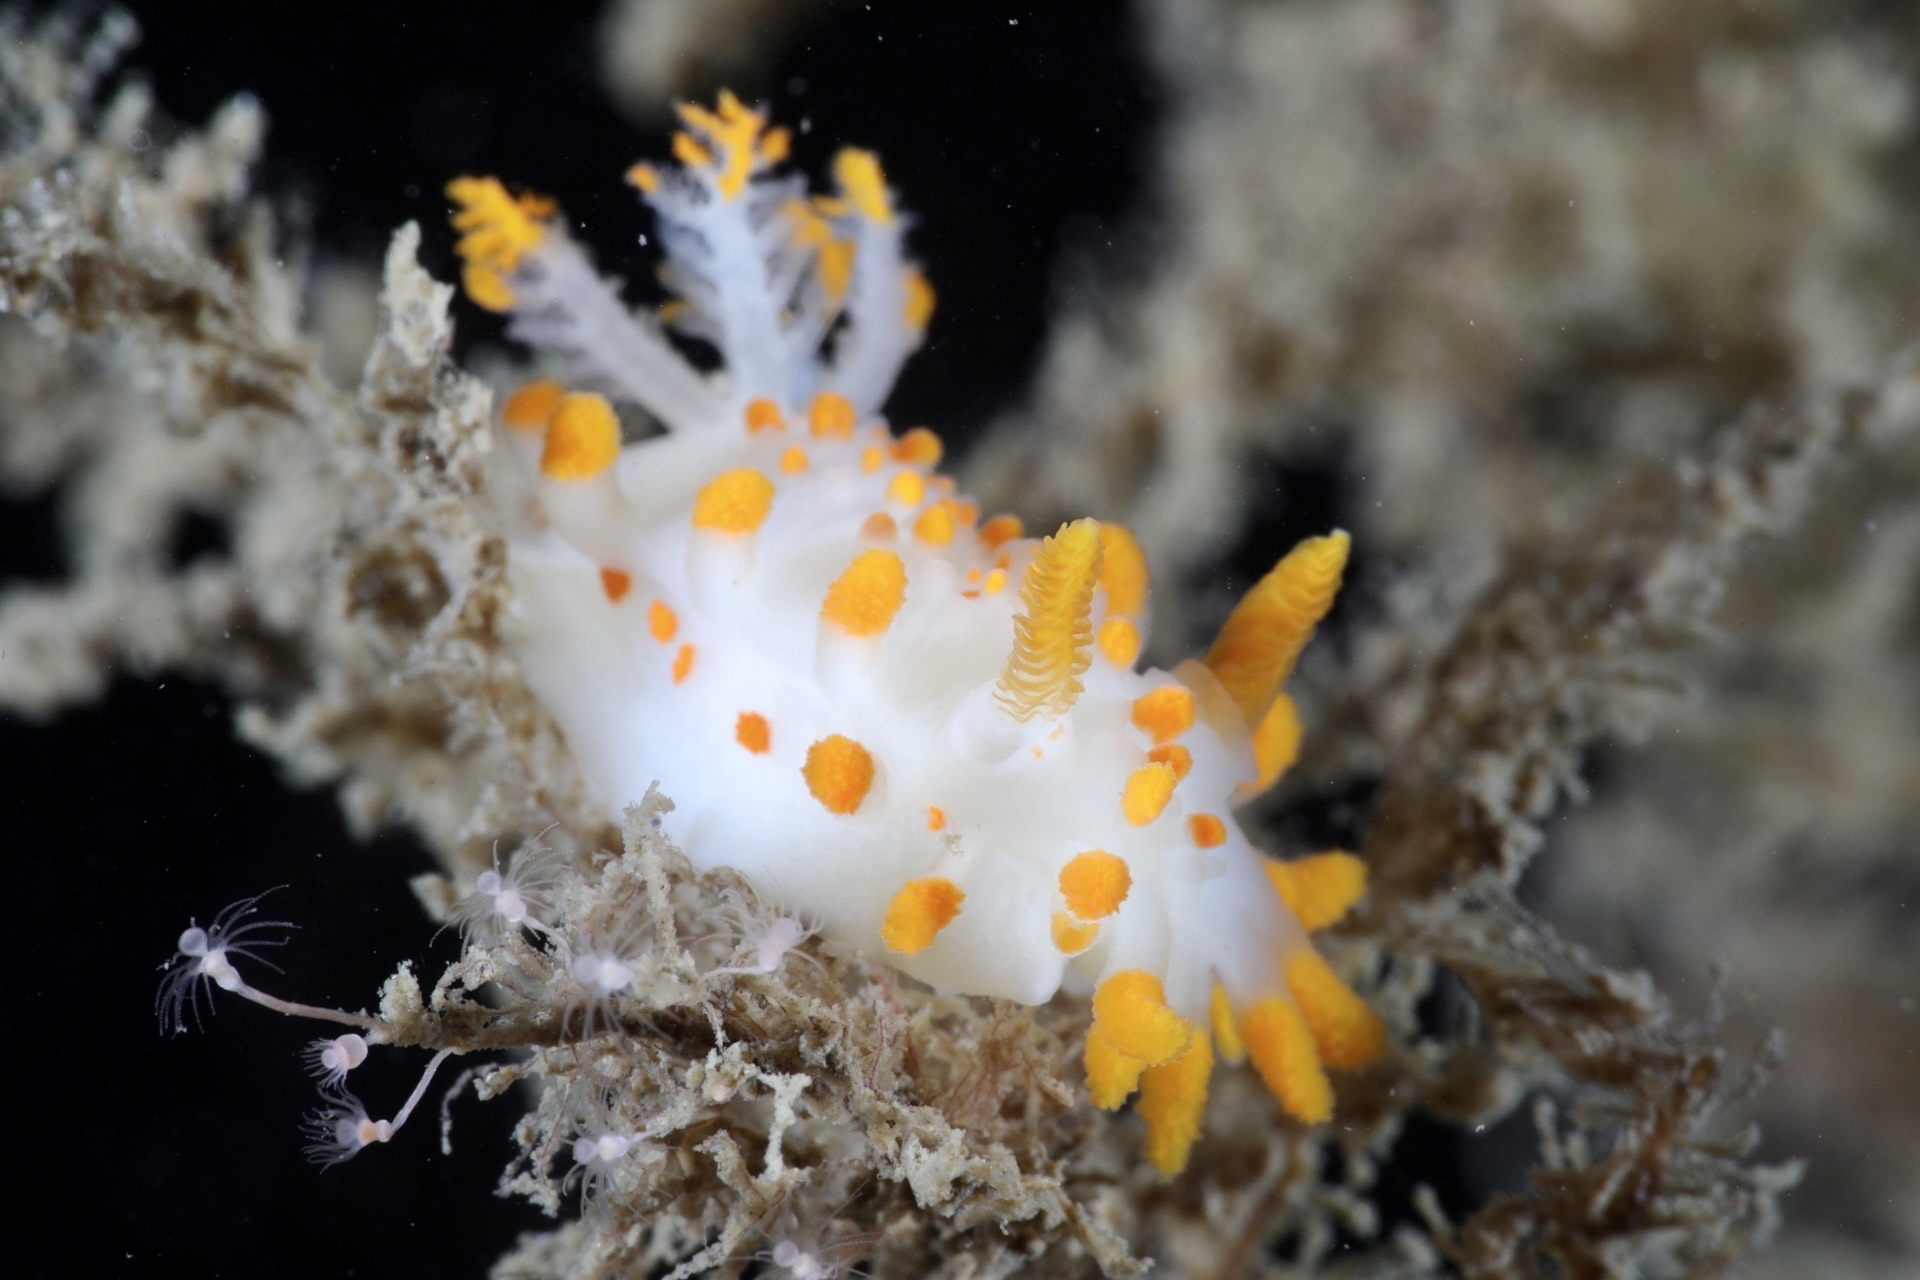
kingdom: Animalia
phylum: Mollusca
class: Gastropoda
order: Nudibranchia
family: Polyceridae
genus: Limacia
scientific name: Limacia clavigera
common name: Orange-clubbed sea slug
